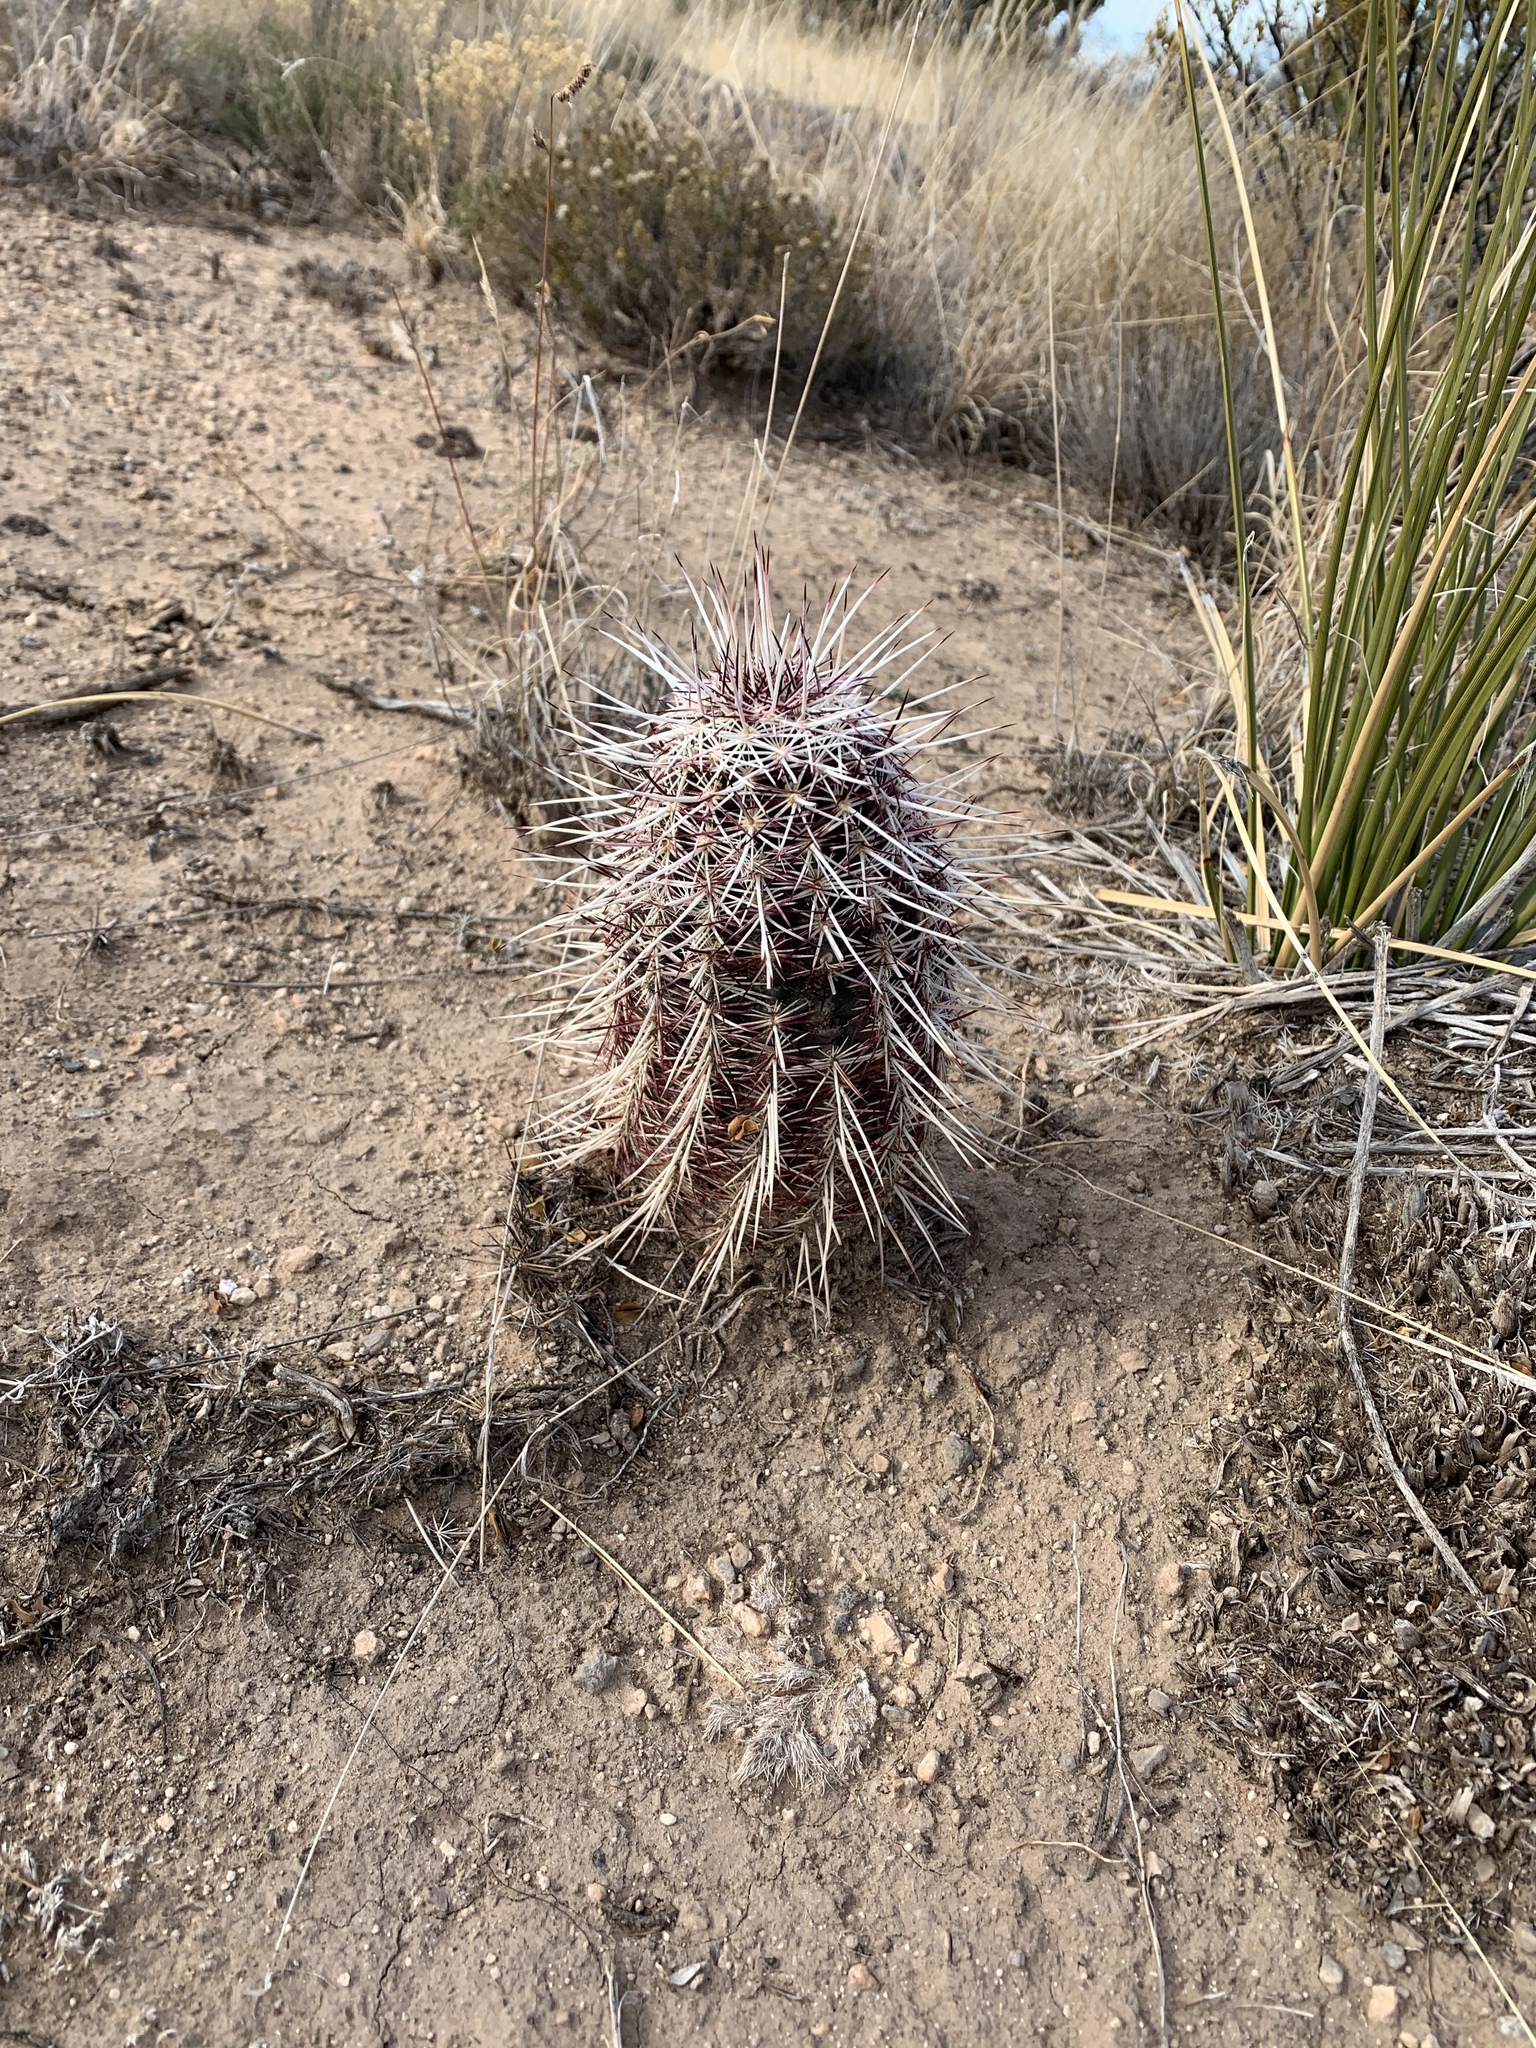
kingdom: Plantae
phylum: Tracheophyta
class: Magnoliopsida
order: Caryophyllales
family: Cactaceae
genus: Echinocereus
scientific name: Echinocereus viridiflorus
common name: Nylon hedgehog cactus
